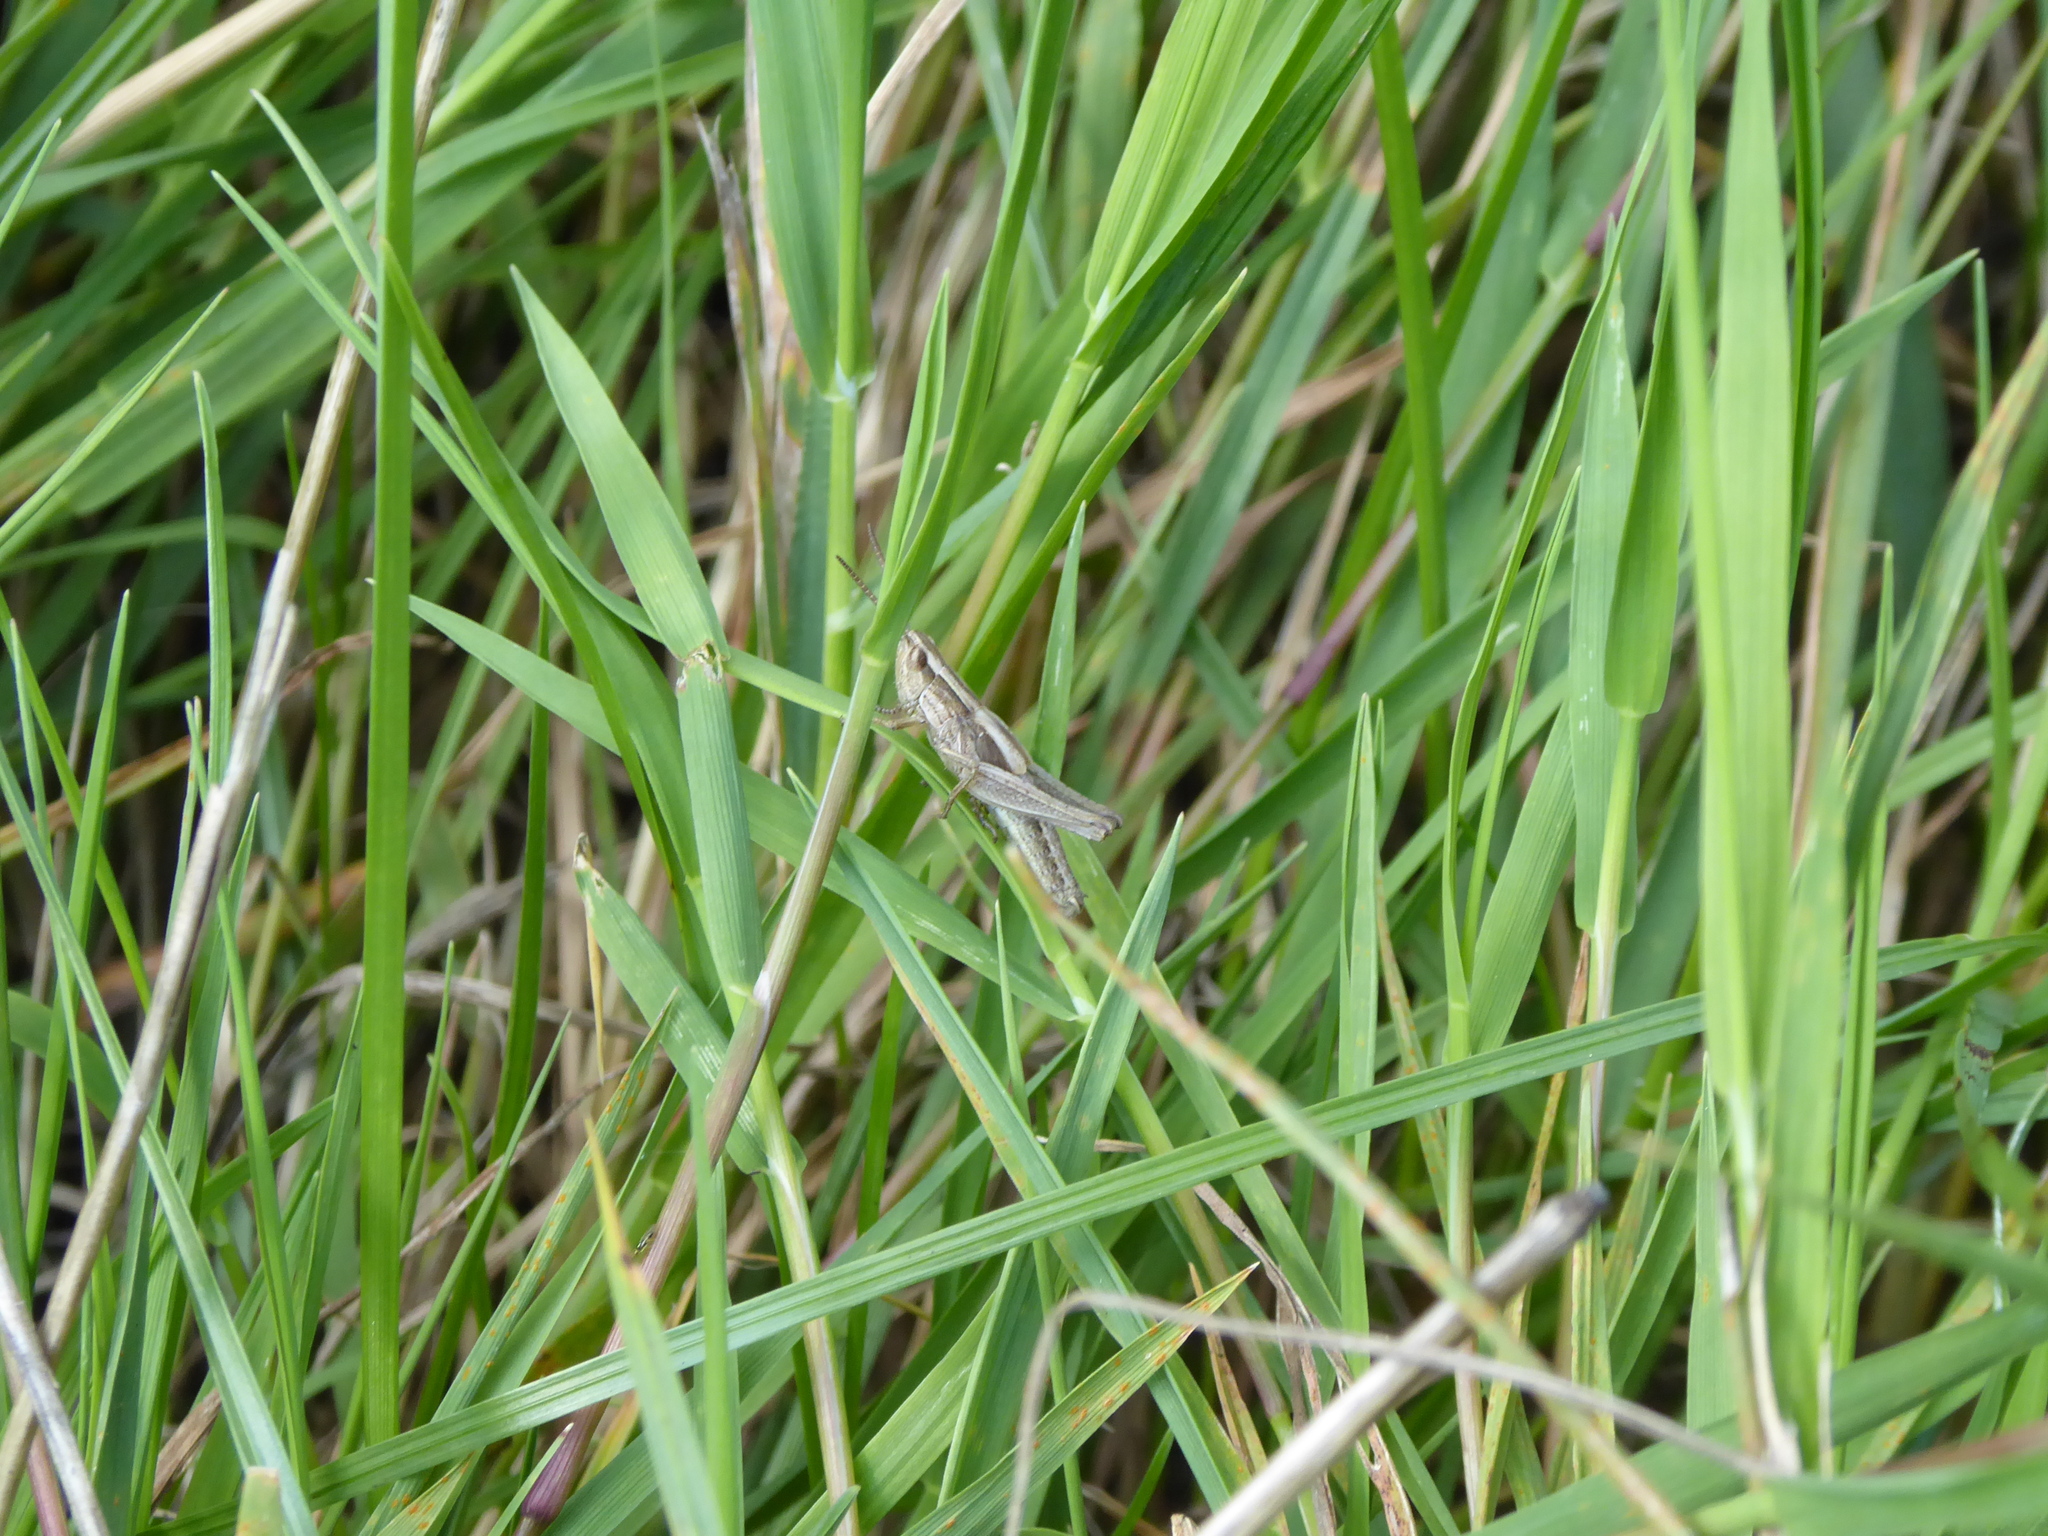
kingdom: Animalia
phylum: Arthropoda
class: Insecta
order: Orthoptera
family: Acrididae
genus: Chorthippus
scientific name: Chorthippus albomarginatus
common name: Lesser marsh grasshopper
